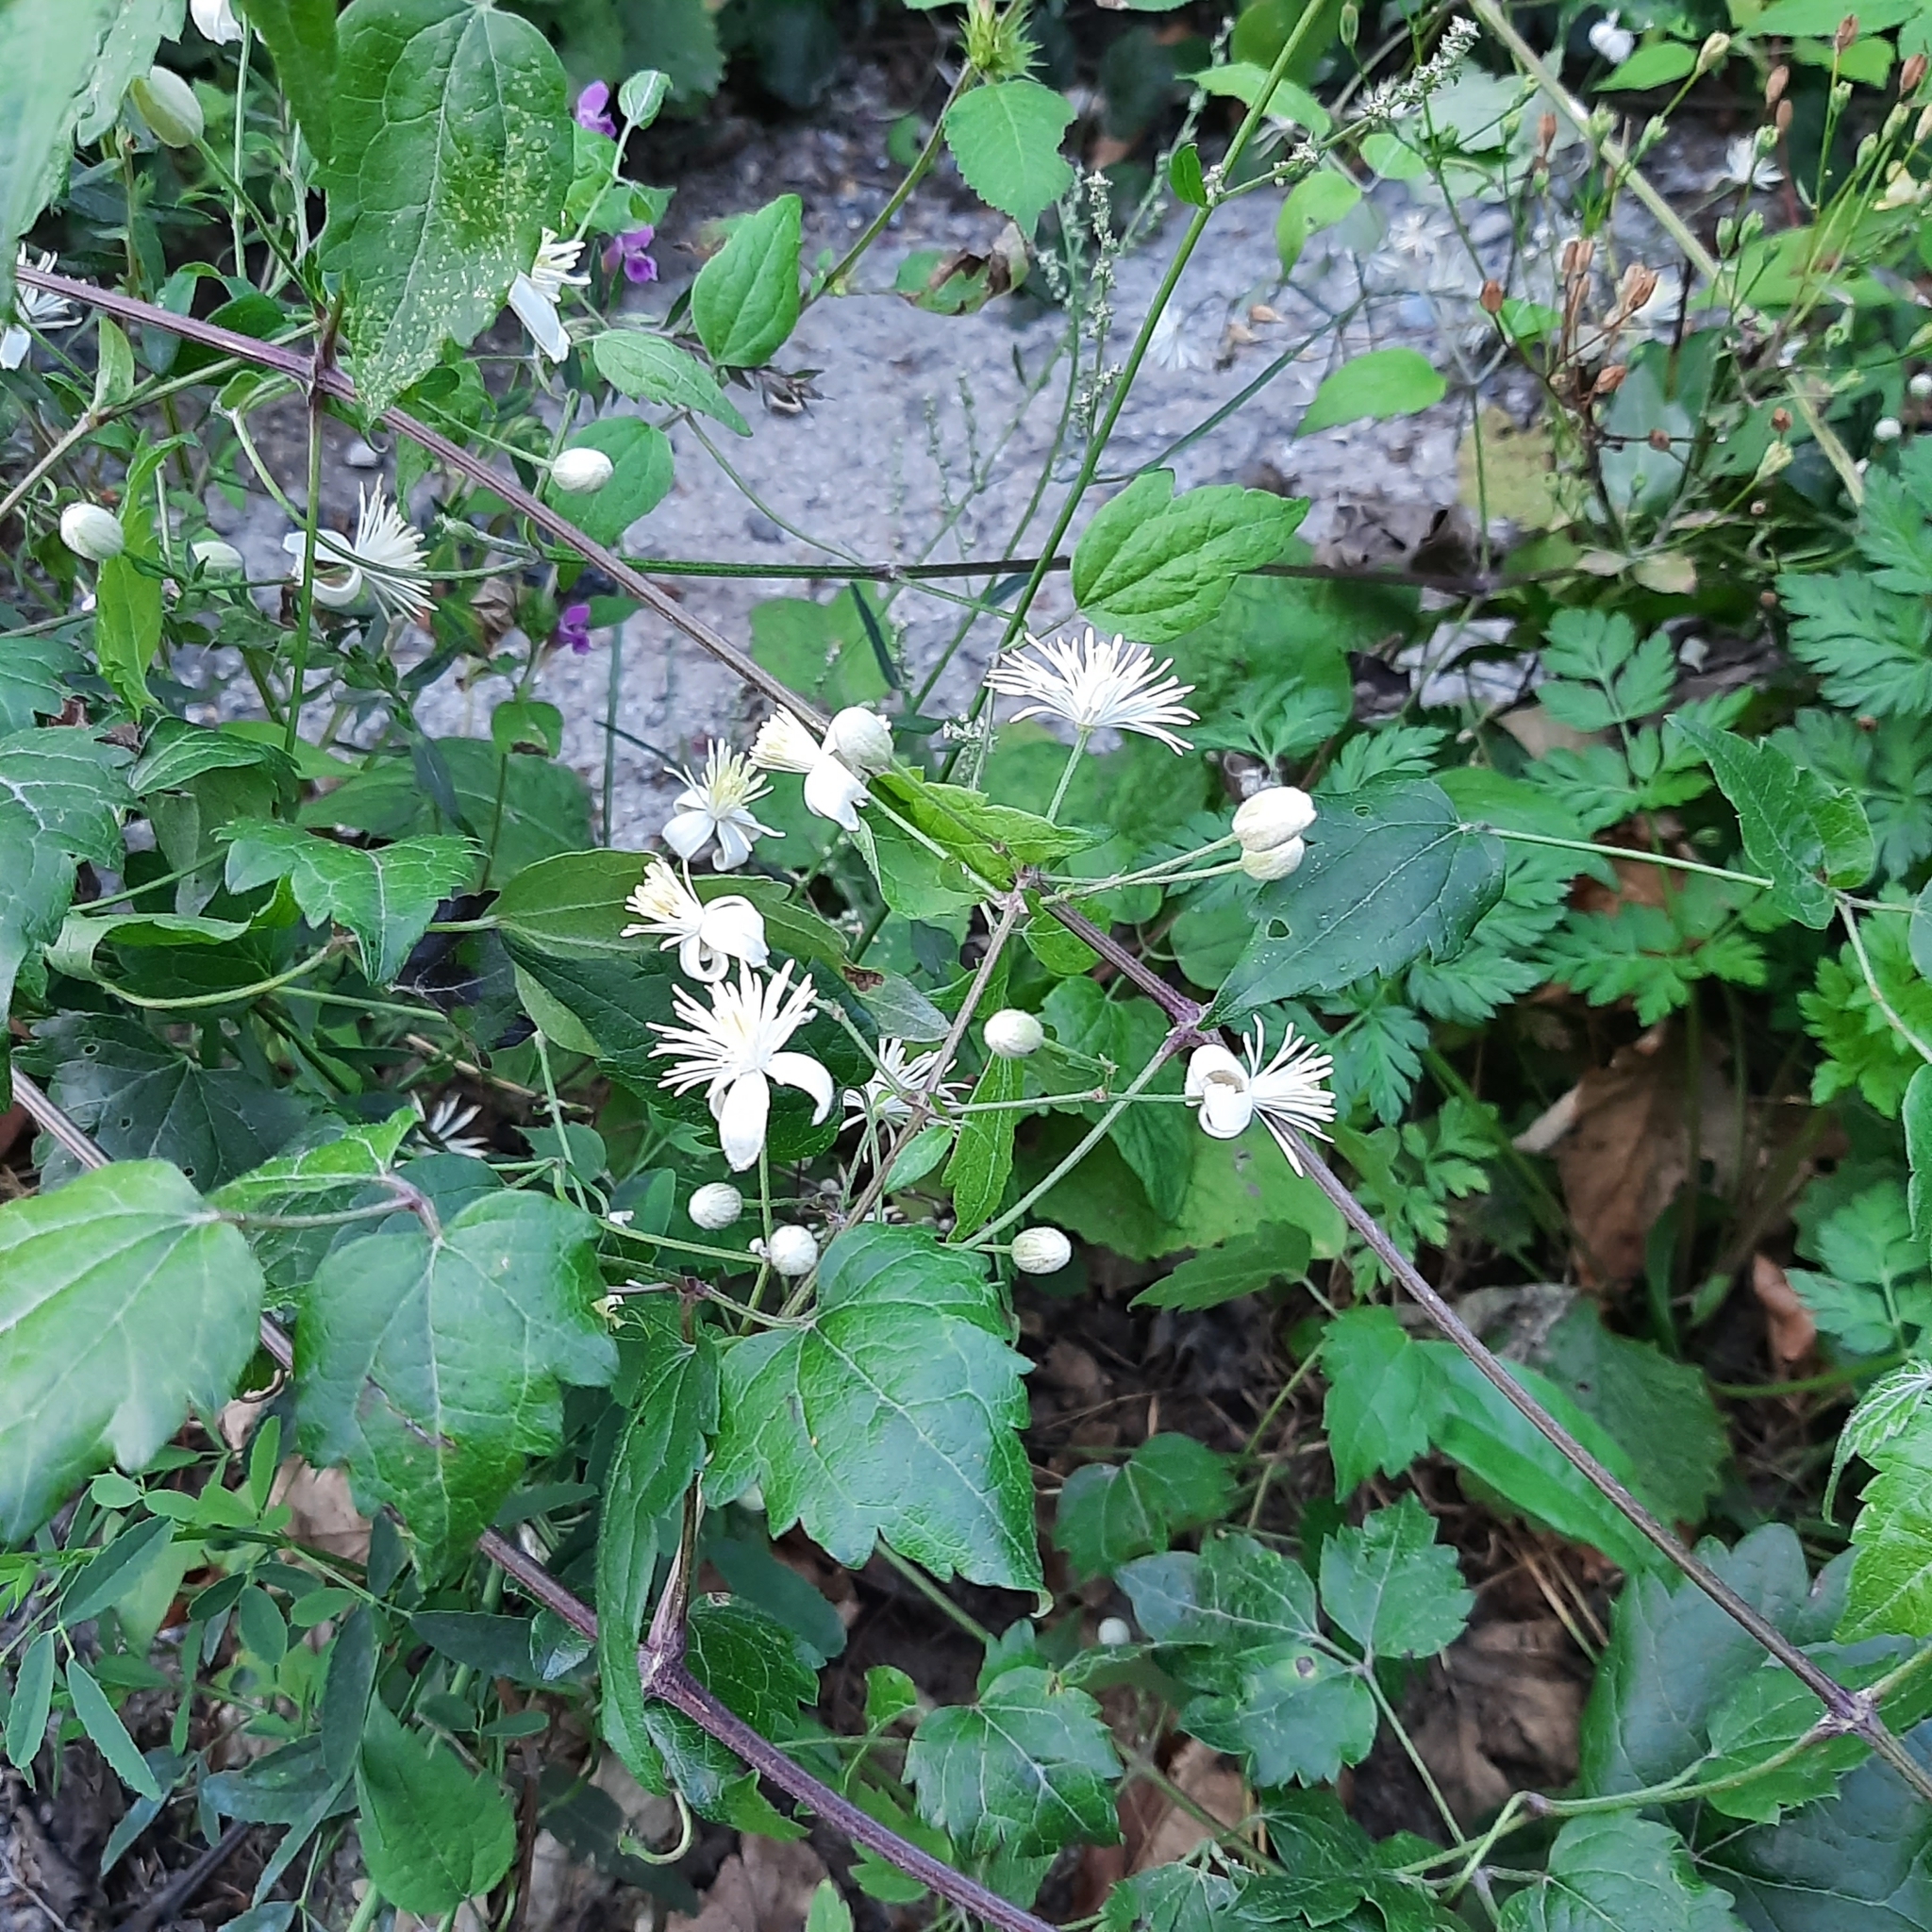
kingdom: Plantae
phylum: Tracheophyta
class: Magnoliopsida
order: Ranunculales
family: Ranunculaceae
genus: Clematis
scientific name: Clematis vitalba
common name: Evergreen clematis
